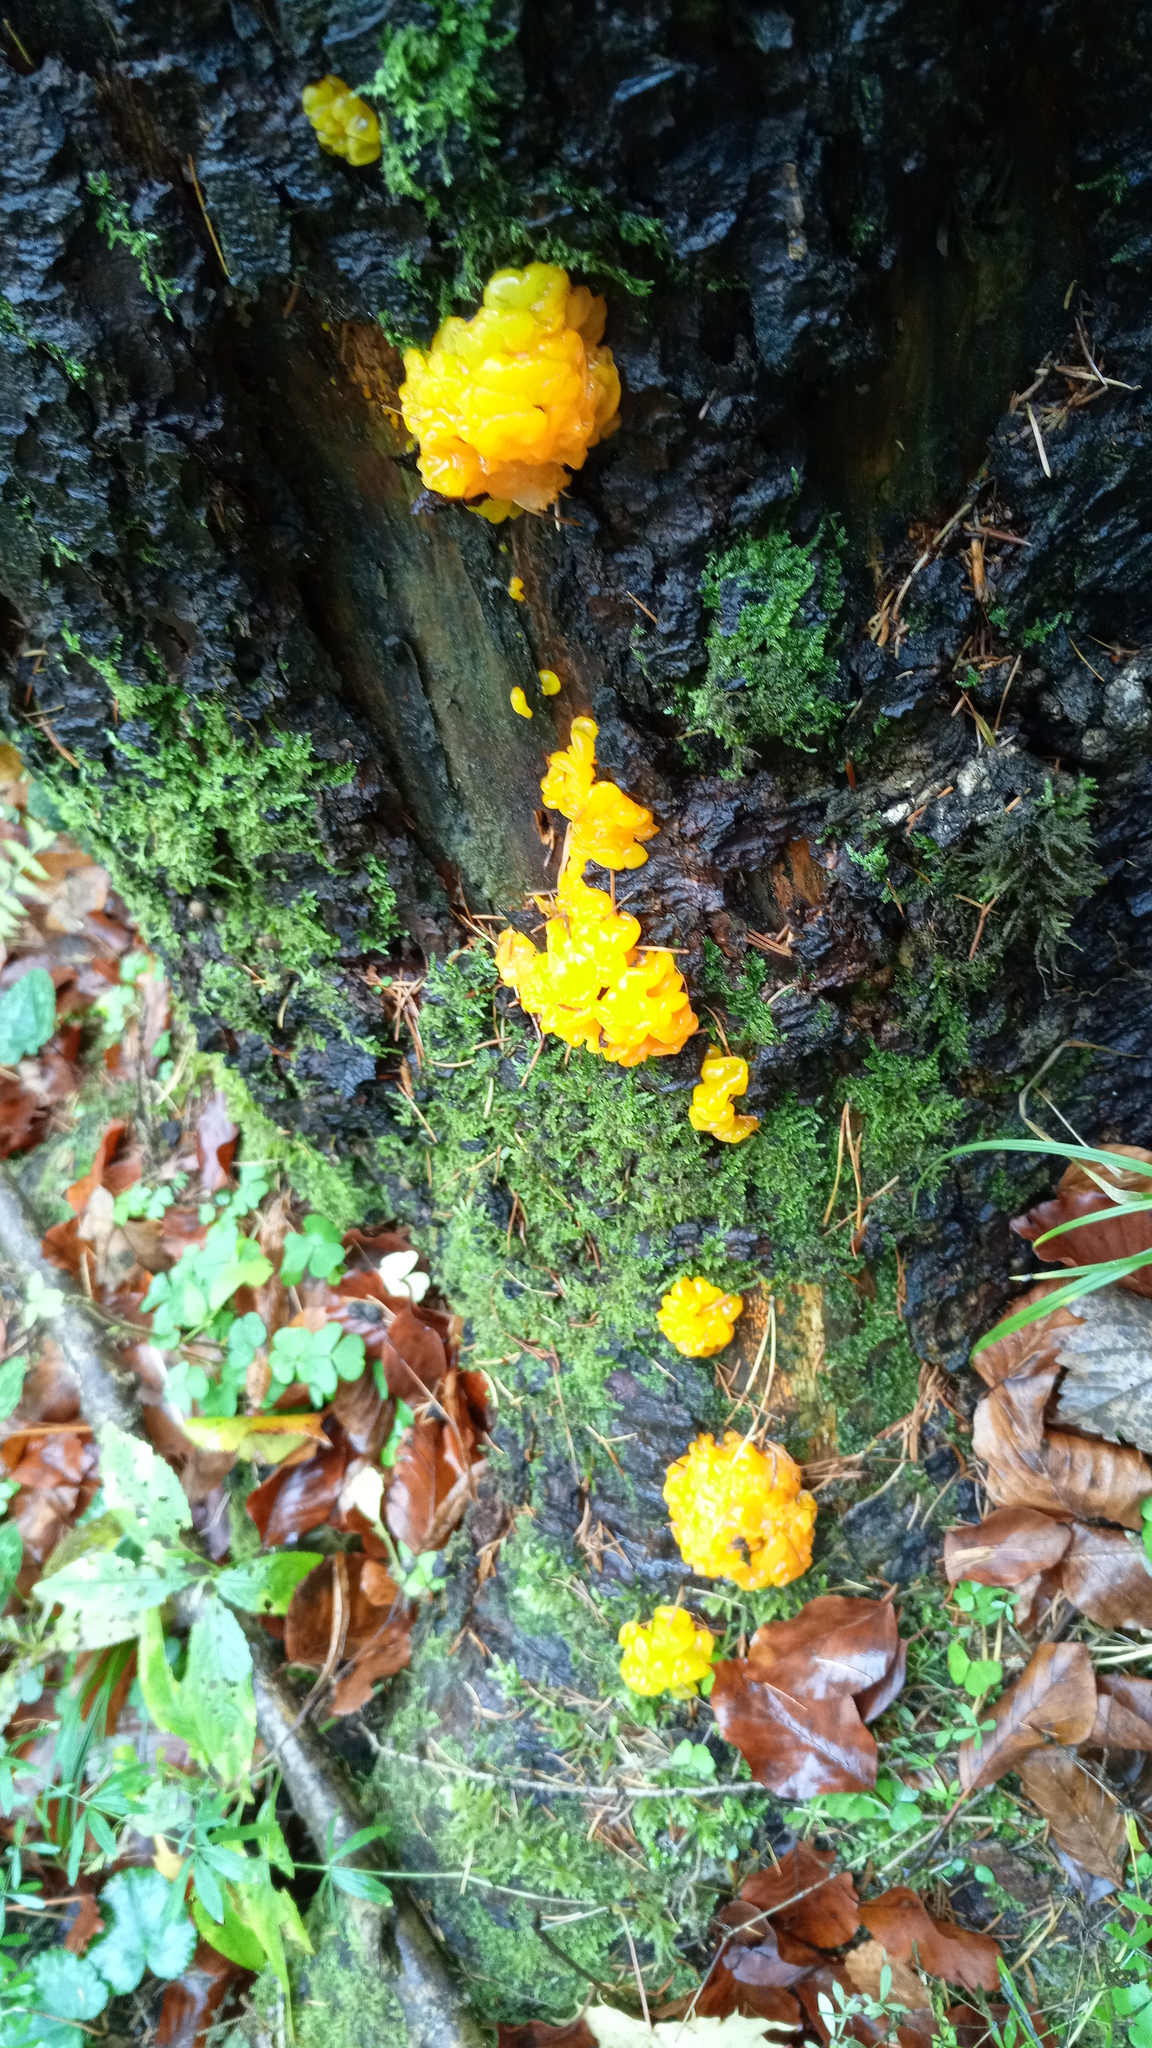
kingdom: Fungi
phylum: Basidiomycota
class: Dacrymycetes
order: Dacrymycetales
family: Dacrymycetaceae
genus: Dacrymyces
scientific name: Dacrymyces chrysospermus
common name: Orange jelly spot
